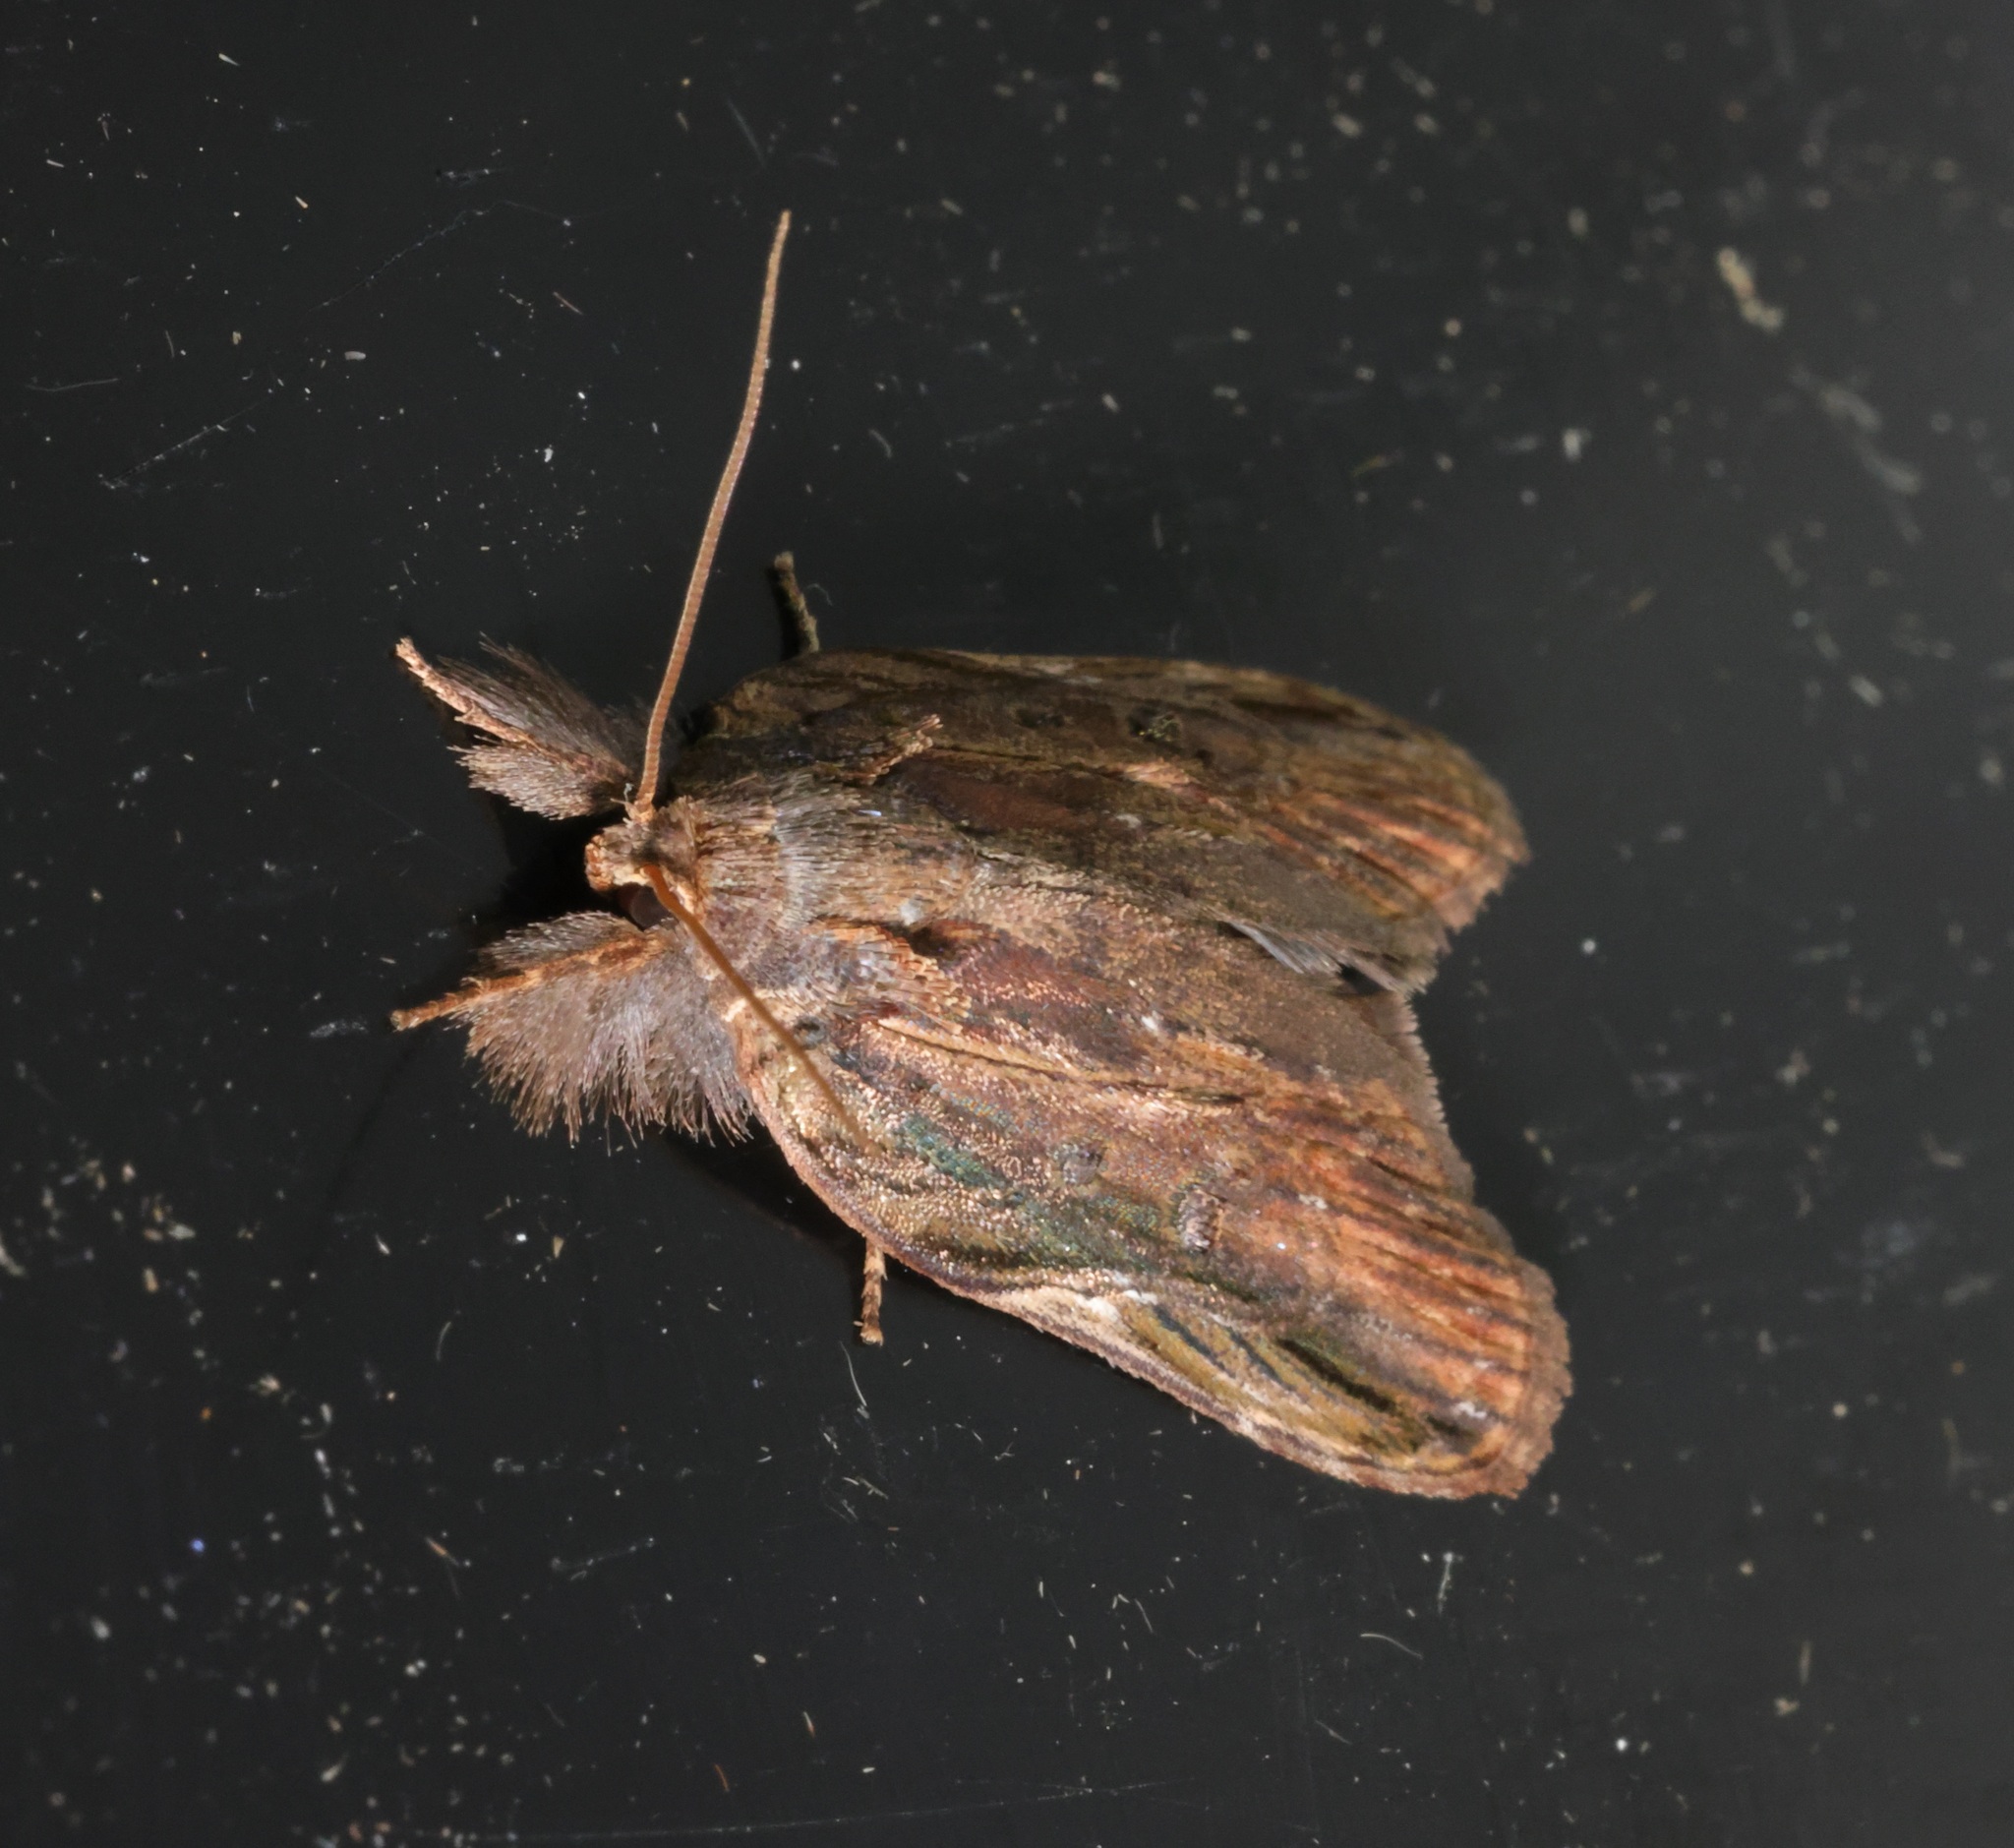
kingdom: Animalia
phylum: Arthropoda
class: Insecta
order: Lepidoptera
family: Nolidae
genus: Lamprothripa
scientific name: Lamprothripa scotia
